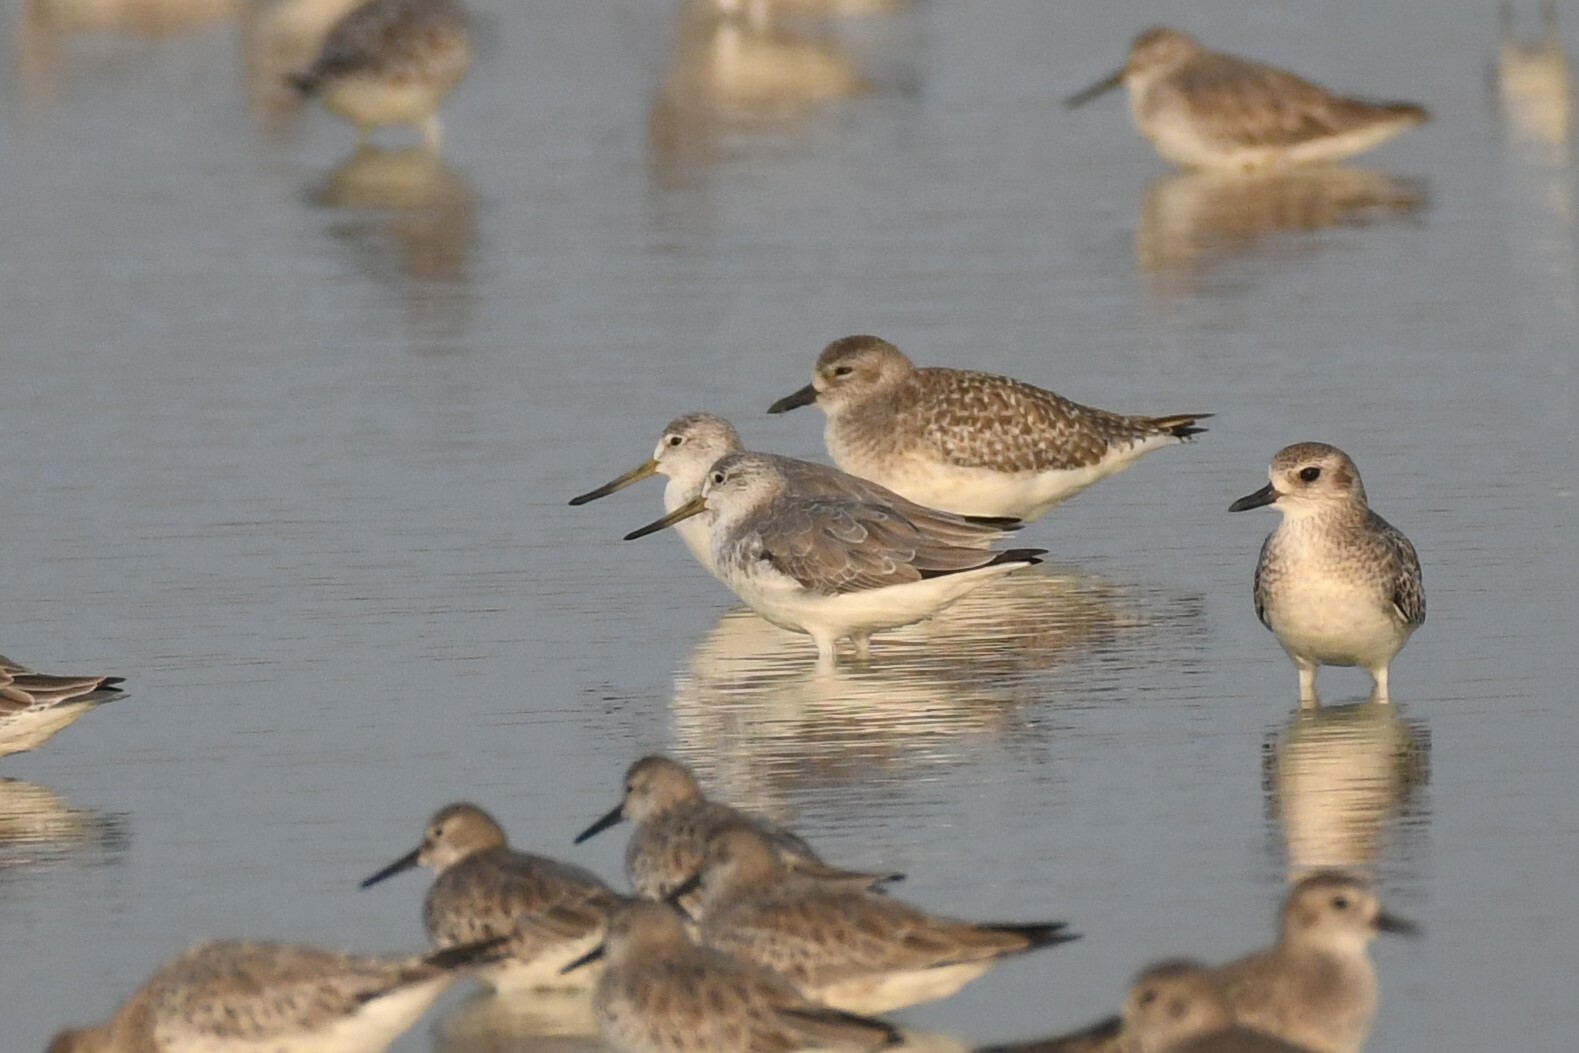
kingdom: Animalia
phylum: Chordata
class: Aves
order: Charadriiformes
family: Scolopacidae
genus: Tringa
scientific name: Tringa guttifer
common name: Nordmann's greenshank
